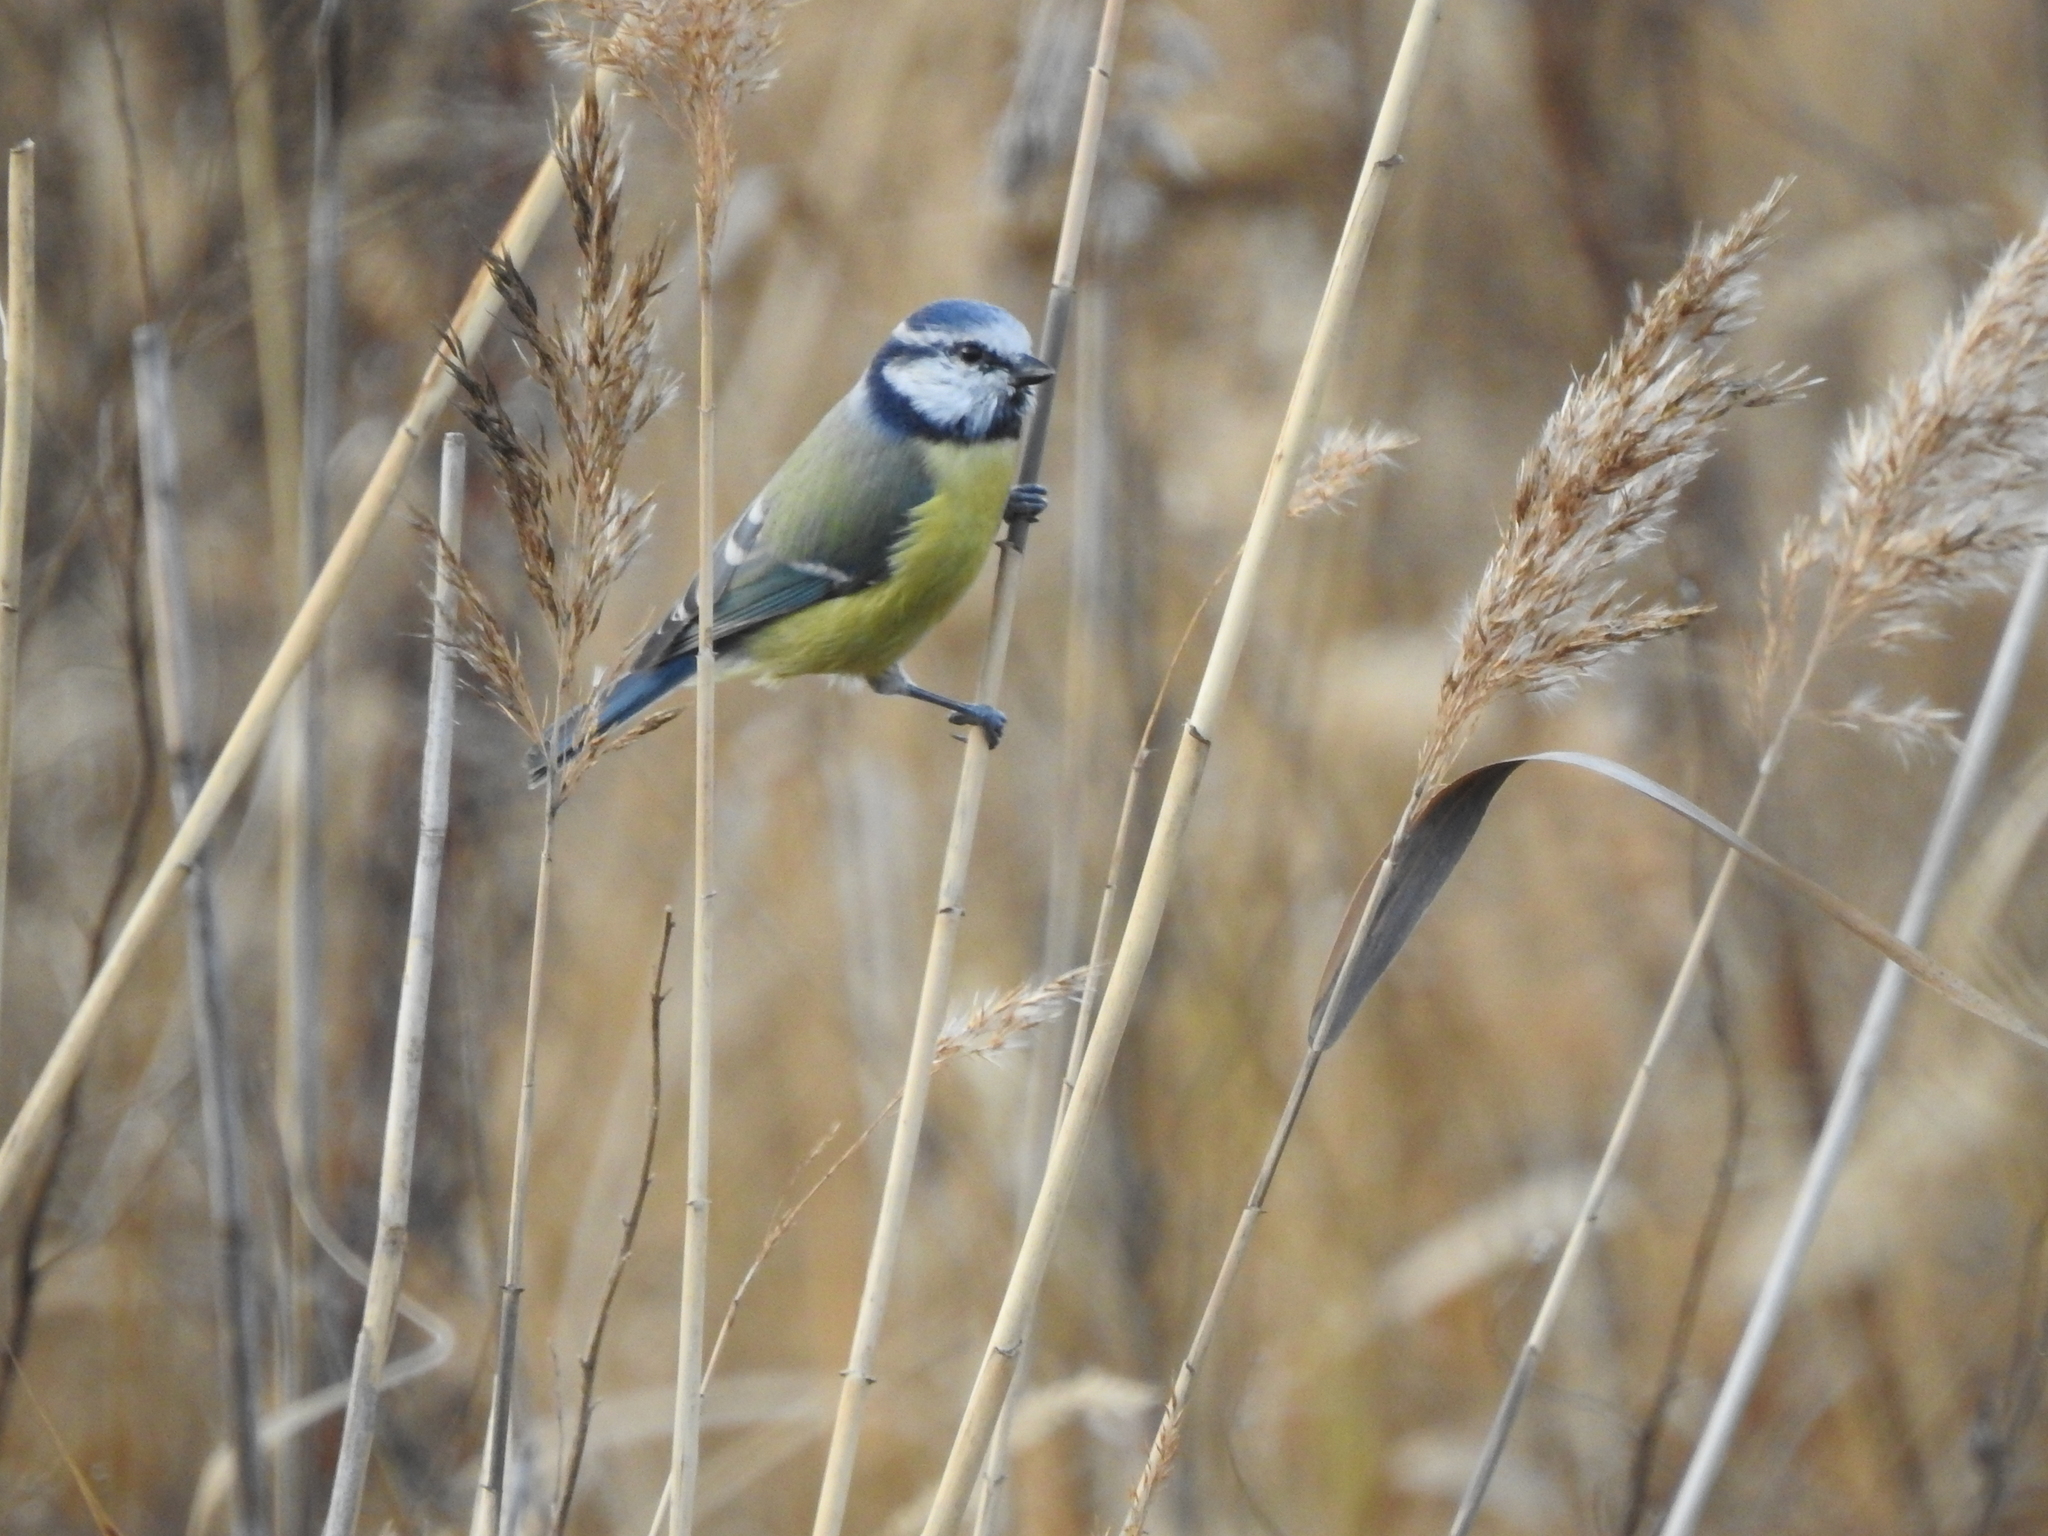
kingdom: Animalia
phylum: Chordata
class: Aves
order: Passeriformes
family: Paridae
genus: Cyanistes
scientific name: Cyanistes caeruleus
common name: Eurasian blue tit
